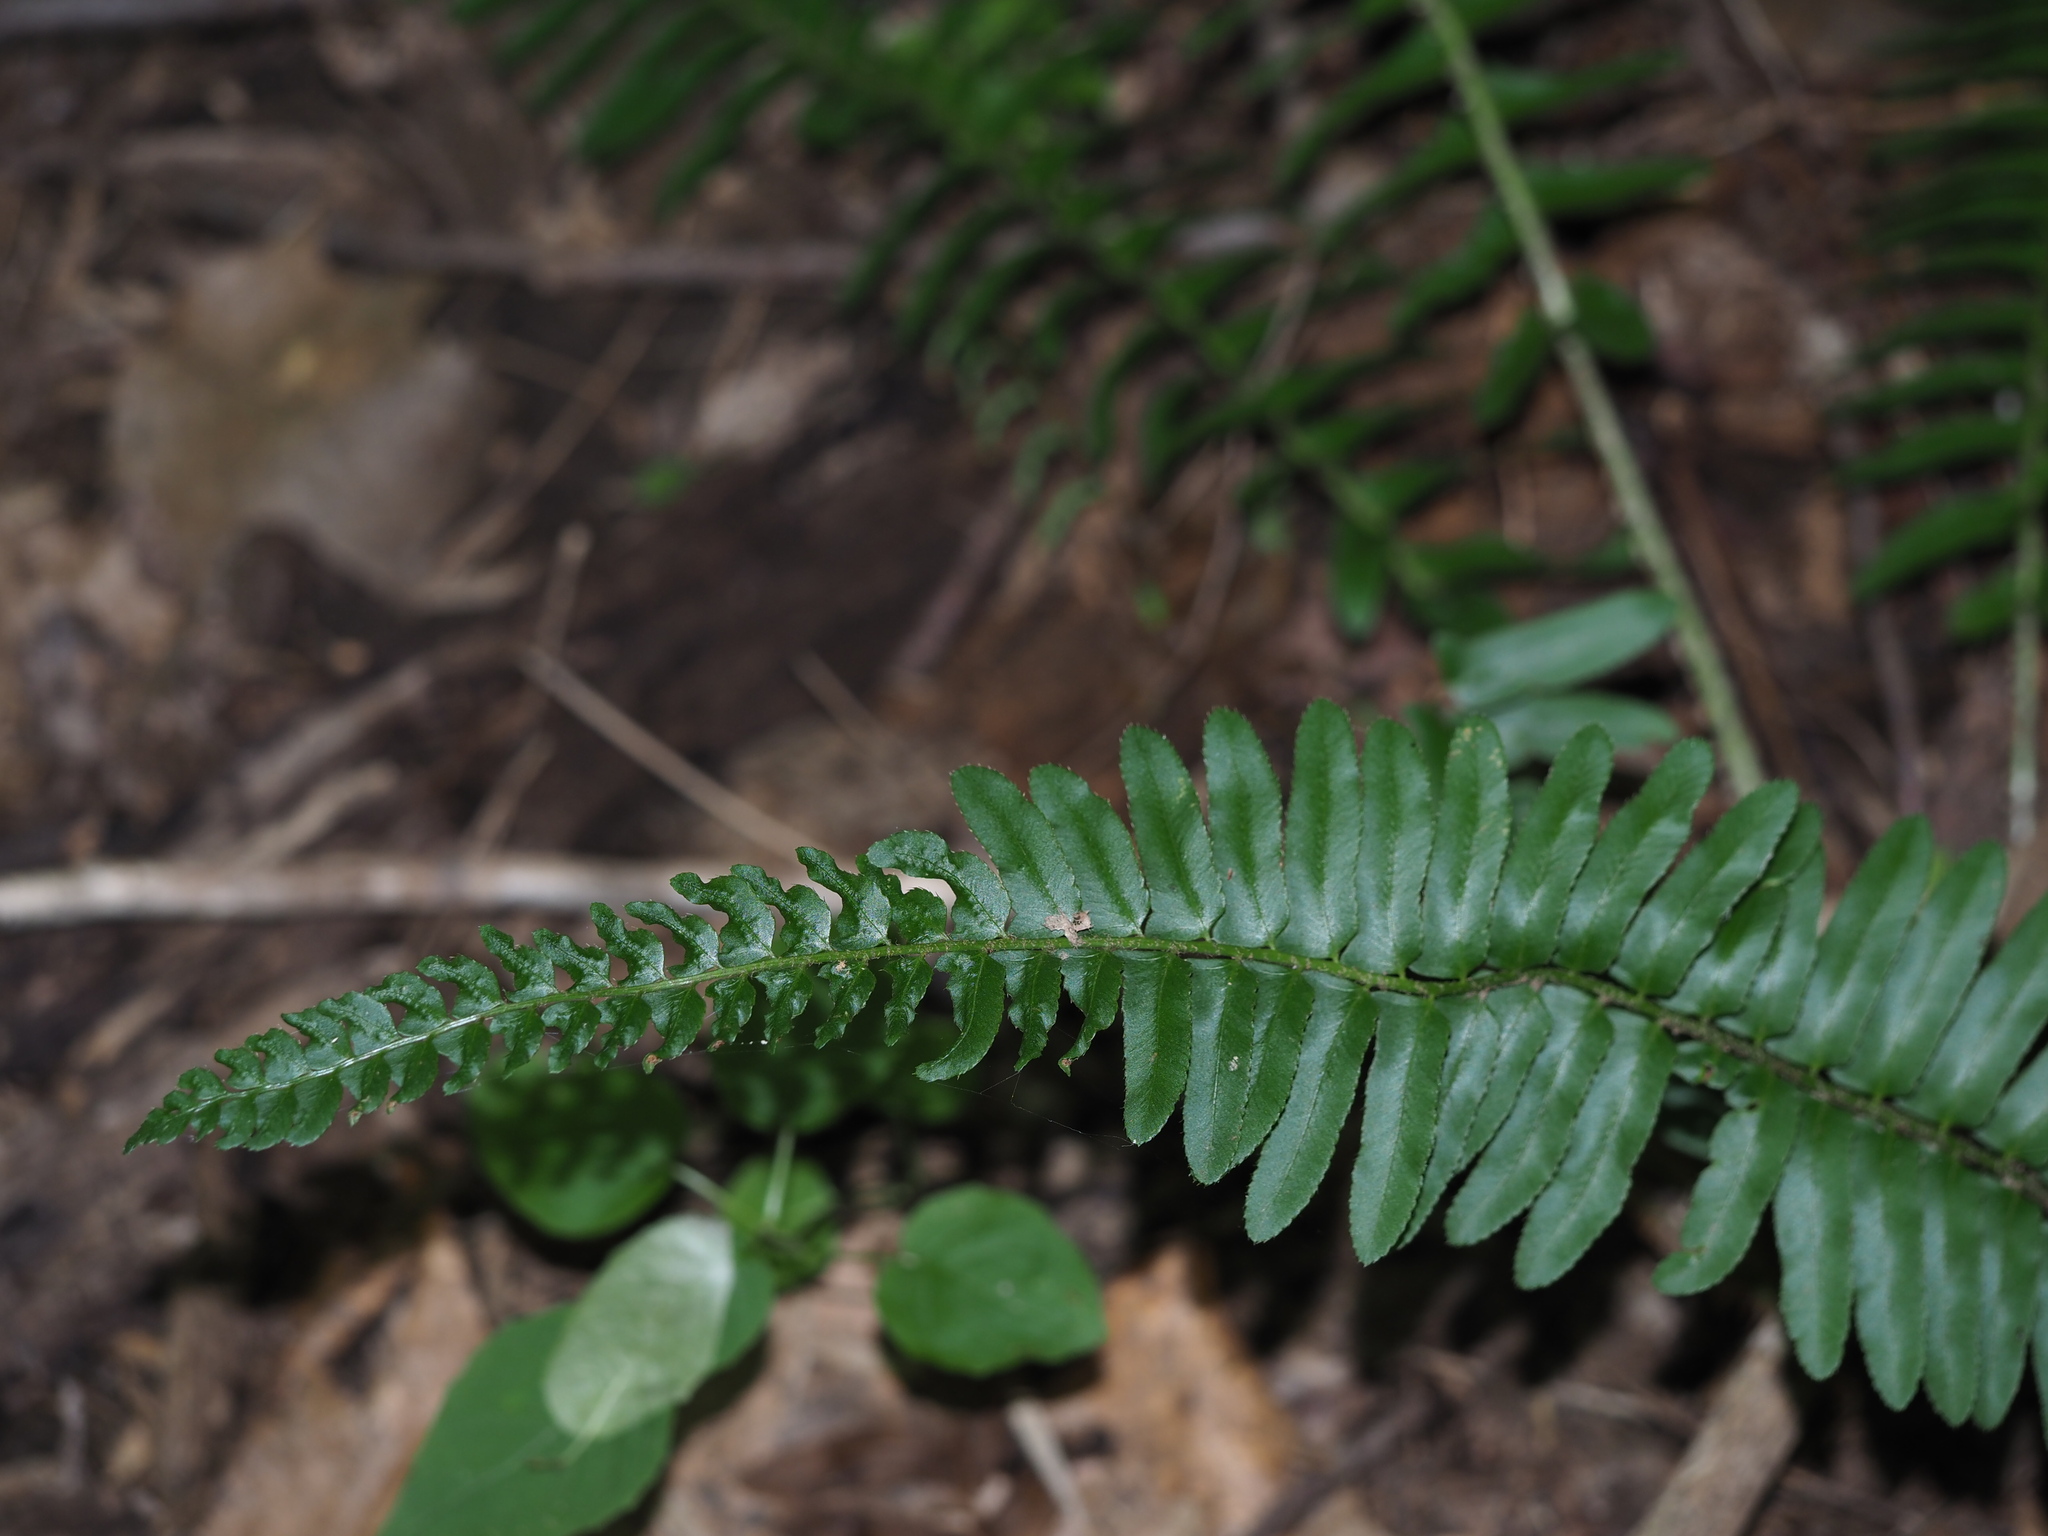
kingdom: Plantae
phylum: Tracheophyta
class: Polypodiopsida
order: Polypodiales
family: Dryopteridaceae
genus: Polystichum
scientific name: Polystichum acrostichoides
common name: Christmas fern
